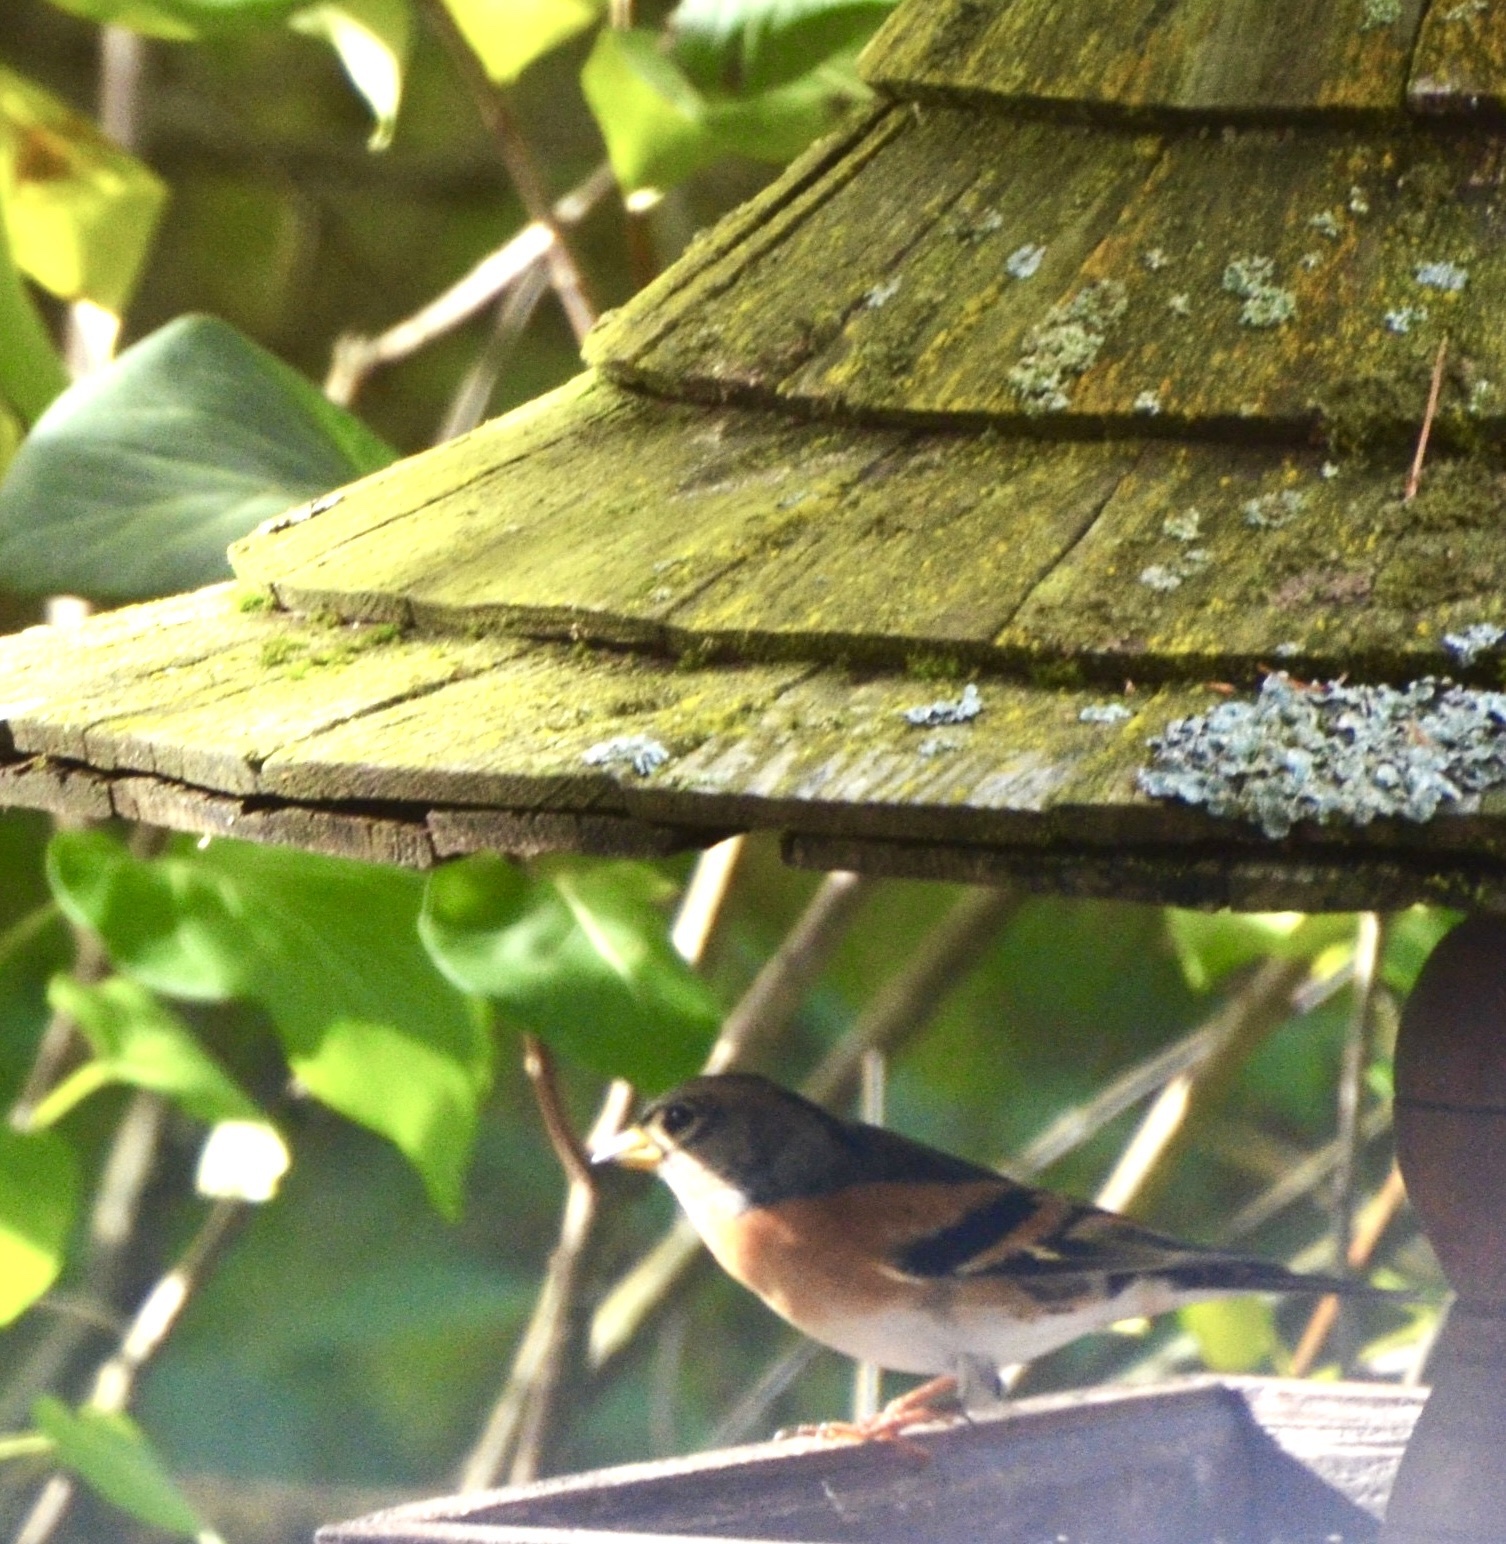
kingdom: Animalia
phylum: Chordata
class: Aves
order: Passeriformes
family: Fringillidae
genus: Fringilla
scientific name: Fringilla montifringilla
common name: Brambling
